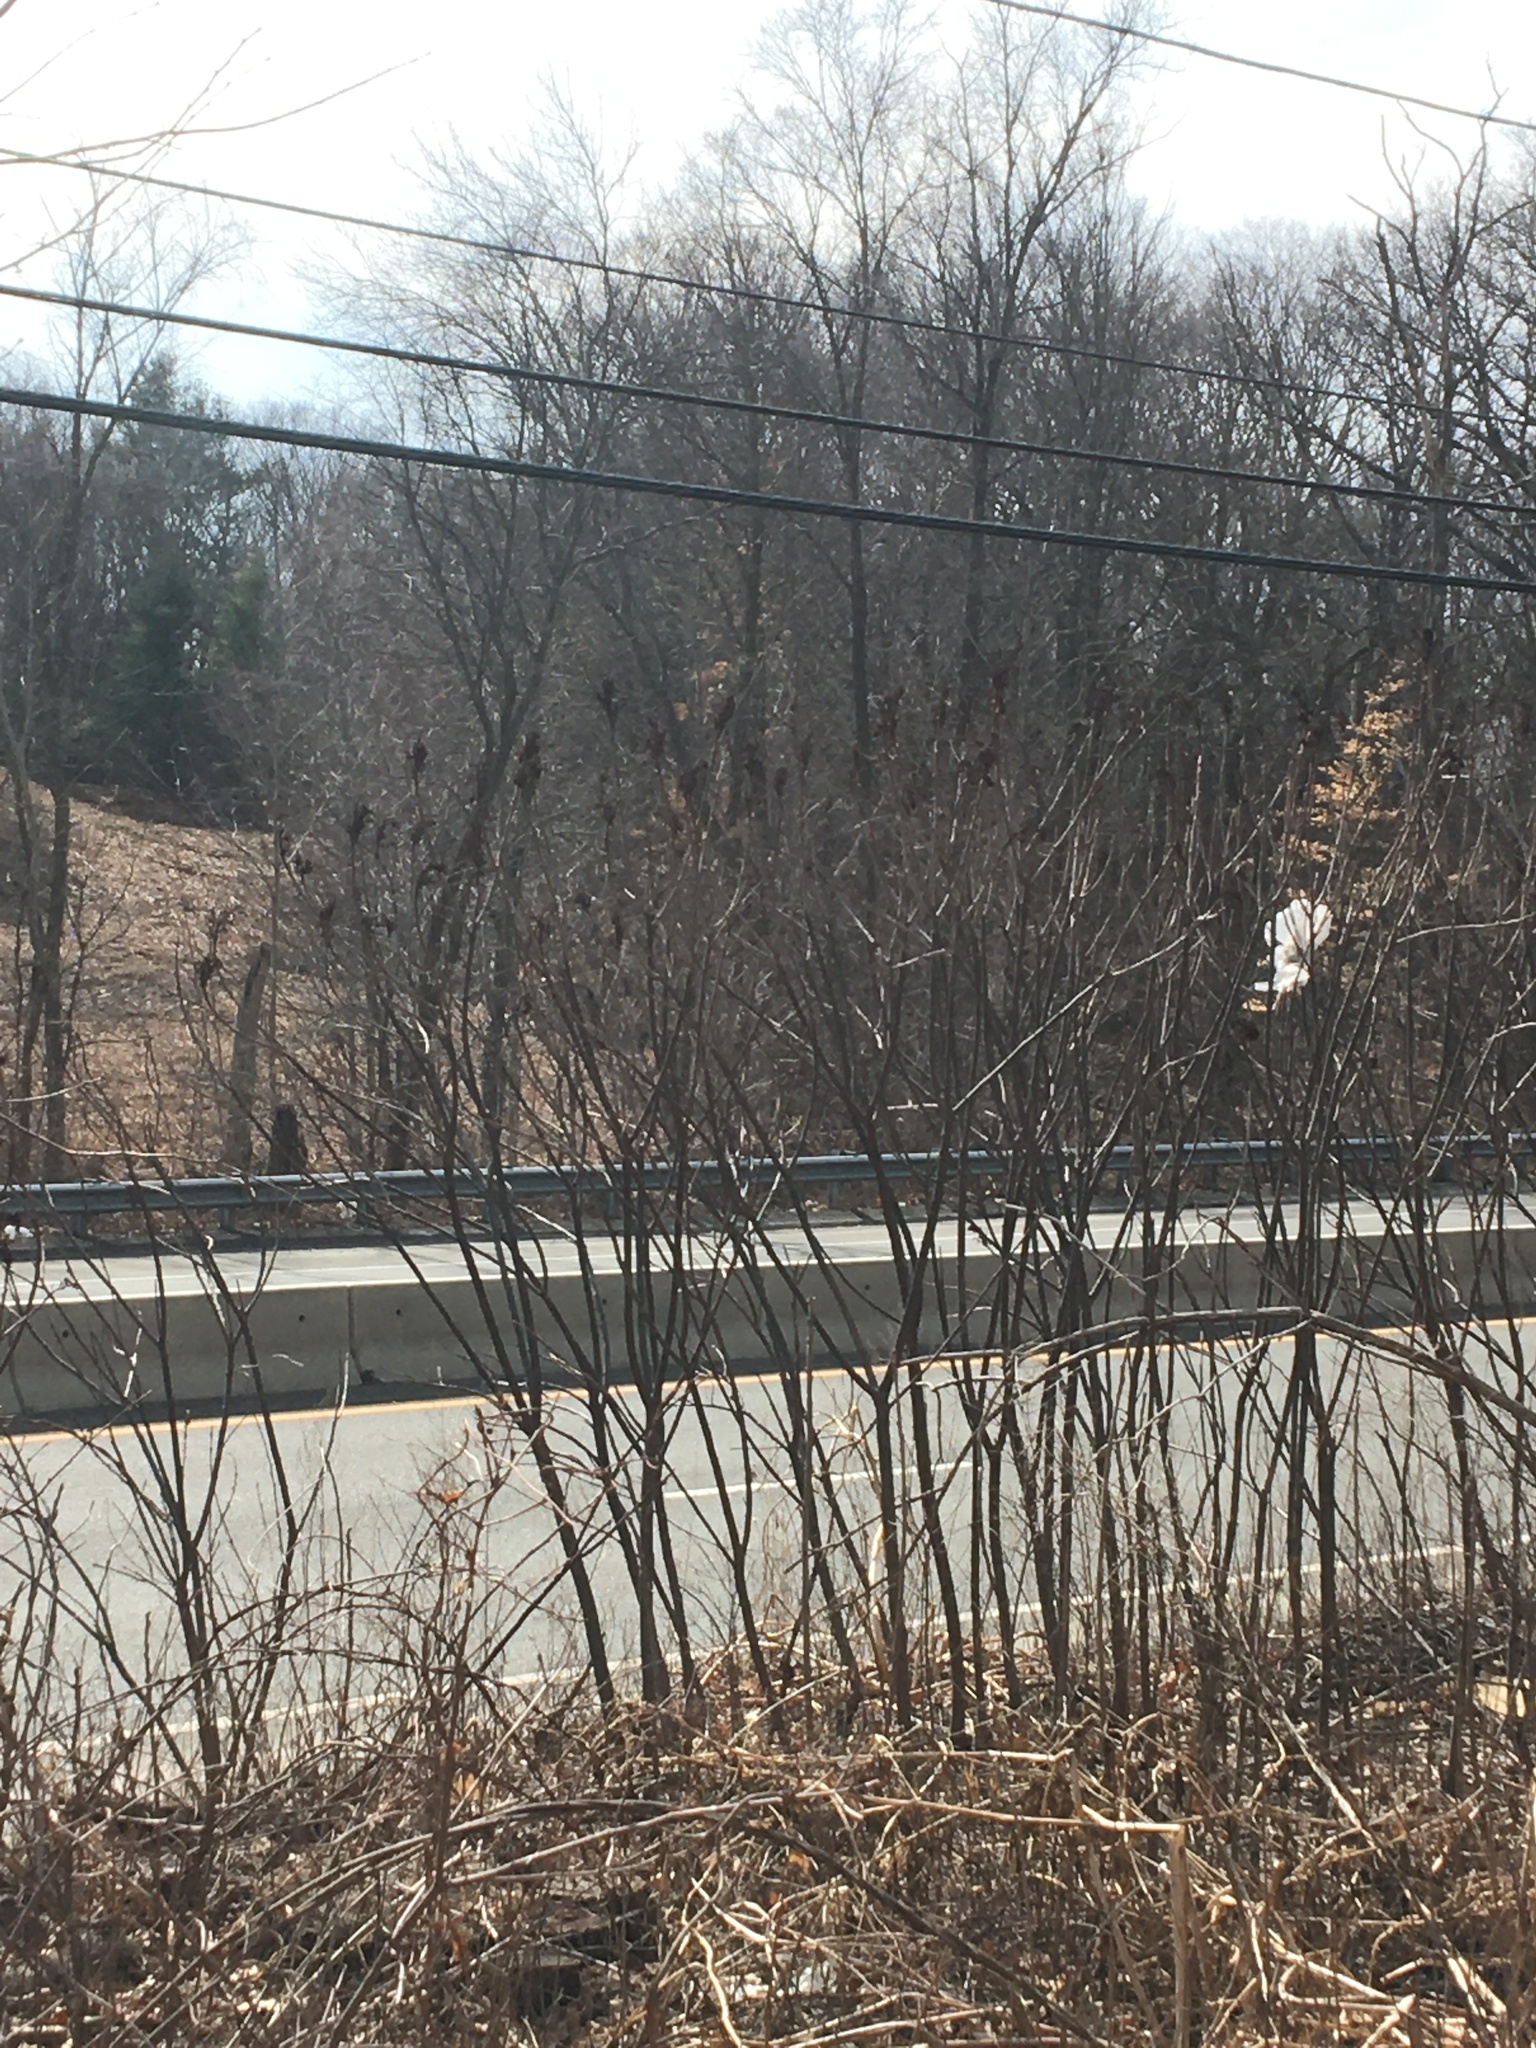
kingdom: Plantae
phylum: Tracheophyta
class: Magnoliopsida
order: Sapindales
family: Anacardiaceae
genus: Rhus
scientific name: Rhus
